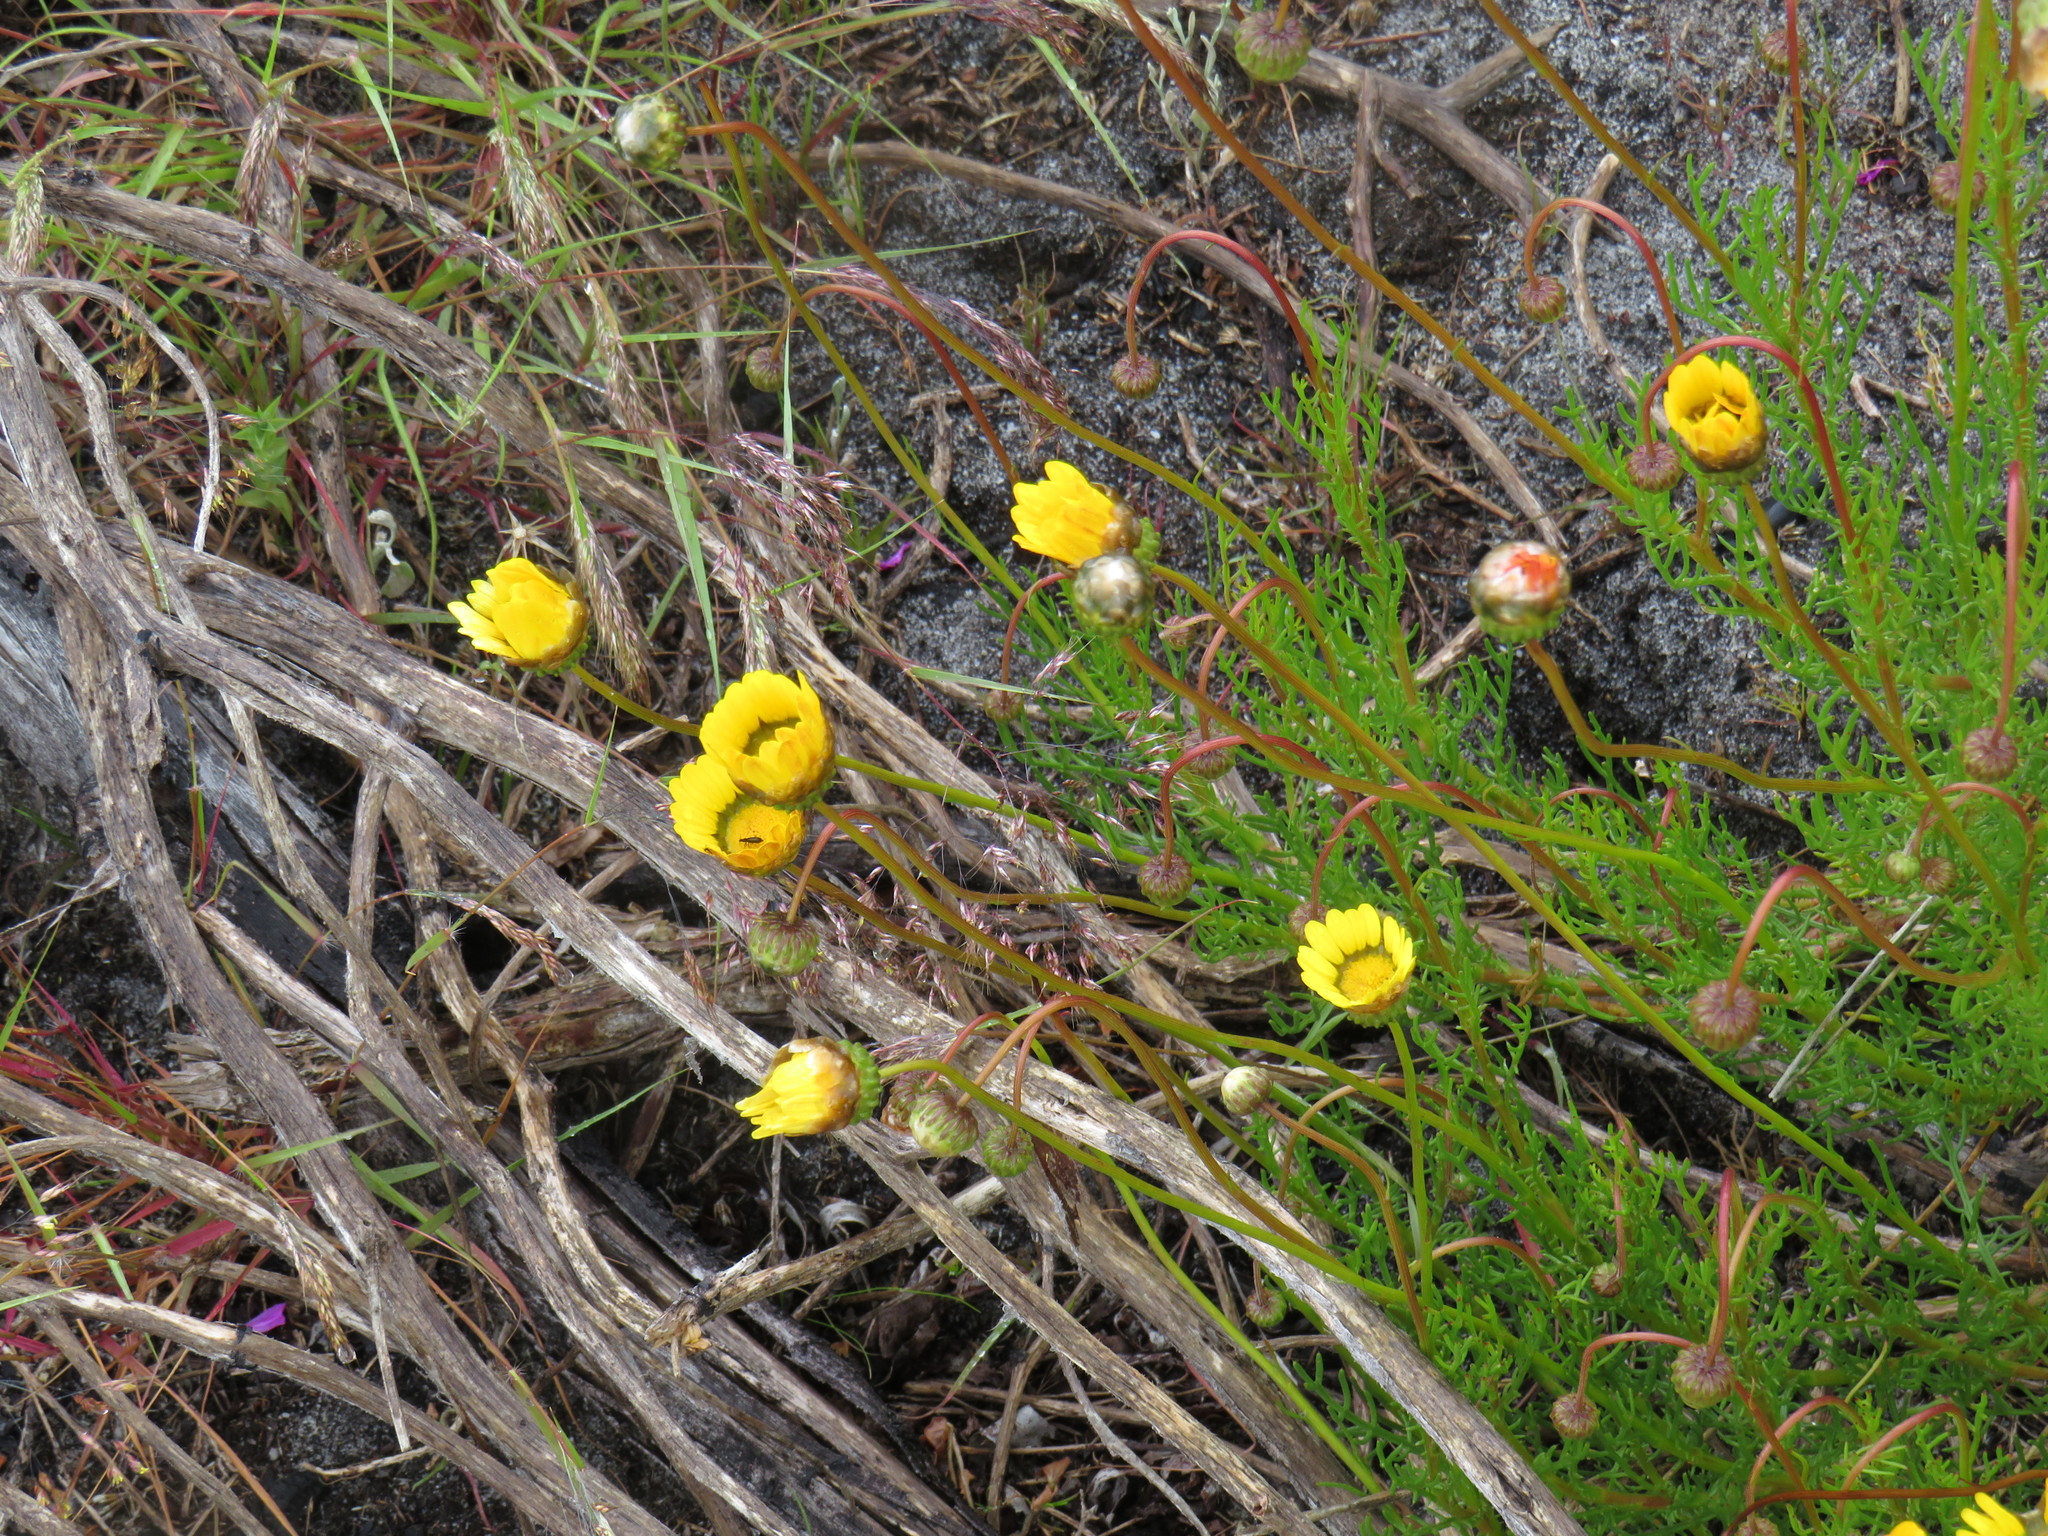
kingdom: Plantae
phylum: Tracheophyta
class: Magnoliopsida
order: Asterales
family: Asteraceae
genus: Ursinia
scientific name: Ursinia paleacea
